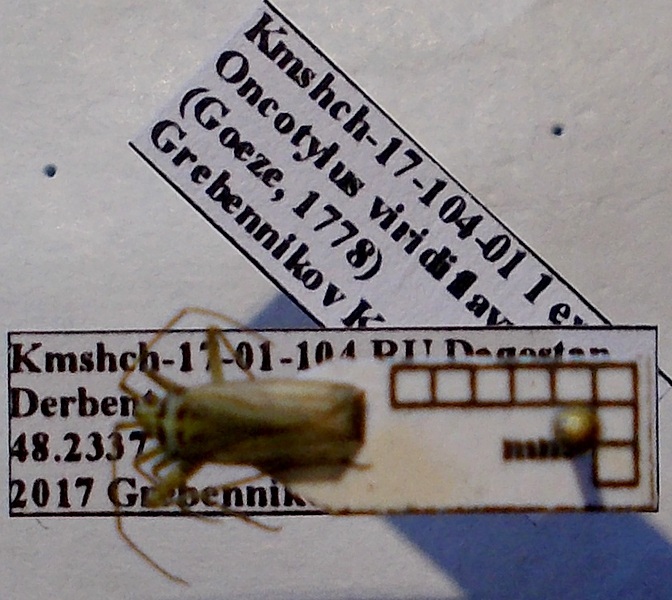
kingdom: Animalia
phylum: Arthropoda
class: Insecta
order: Hemiptera
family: Miridae
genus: Oncotylus
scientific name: Oncotylus viridiflavus
